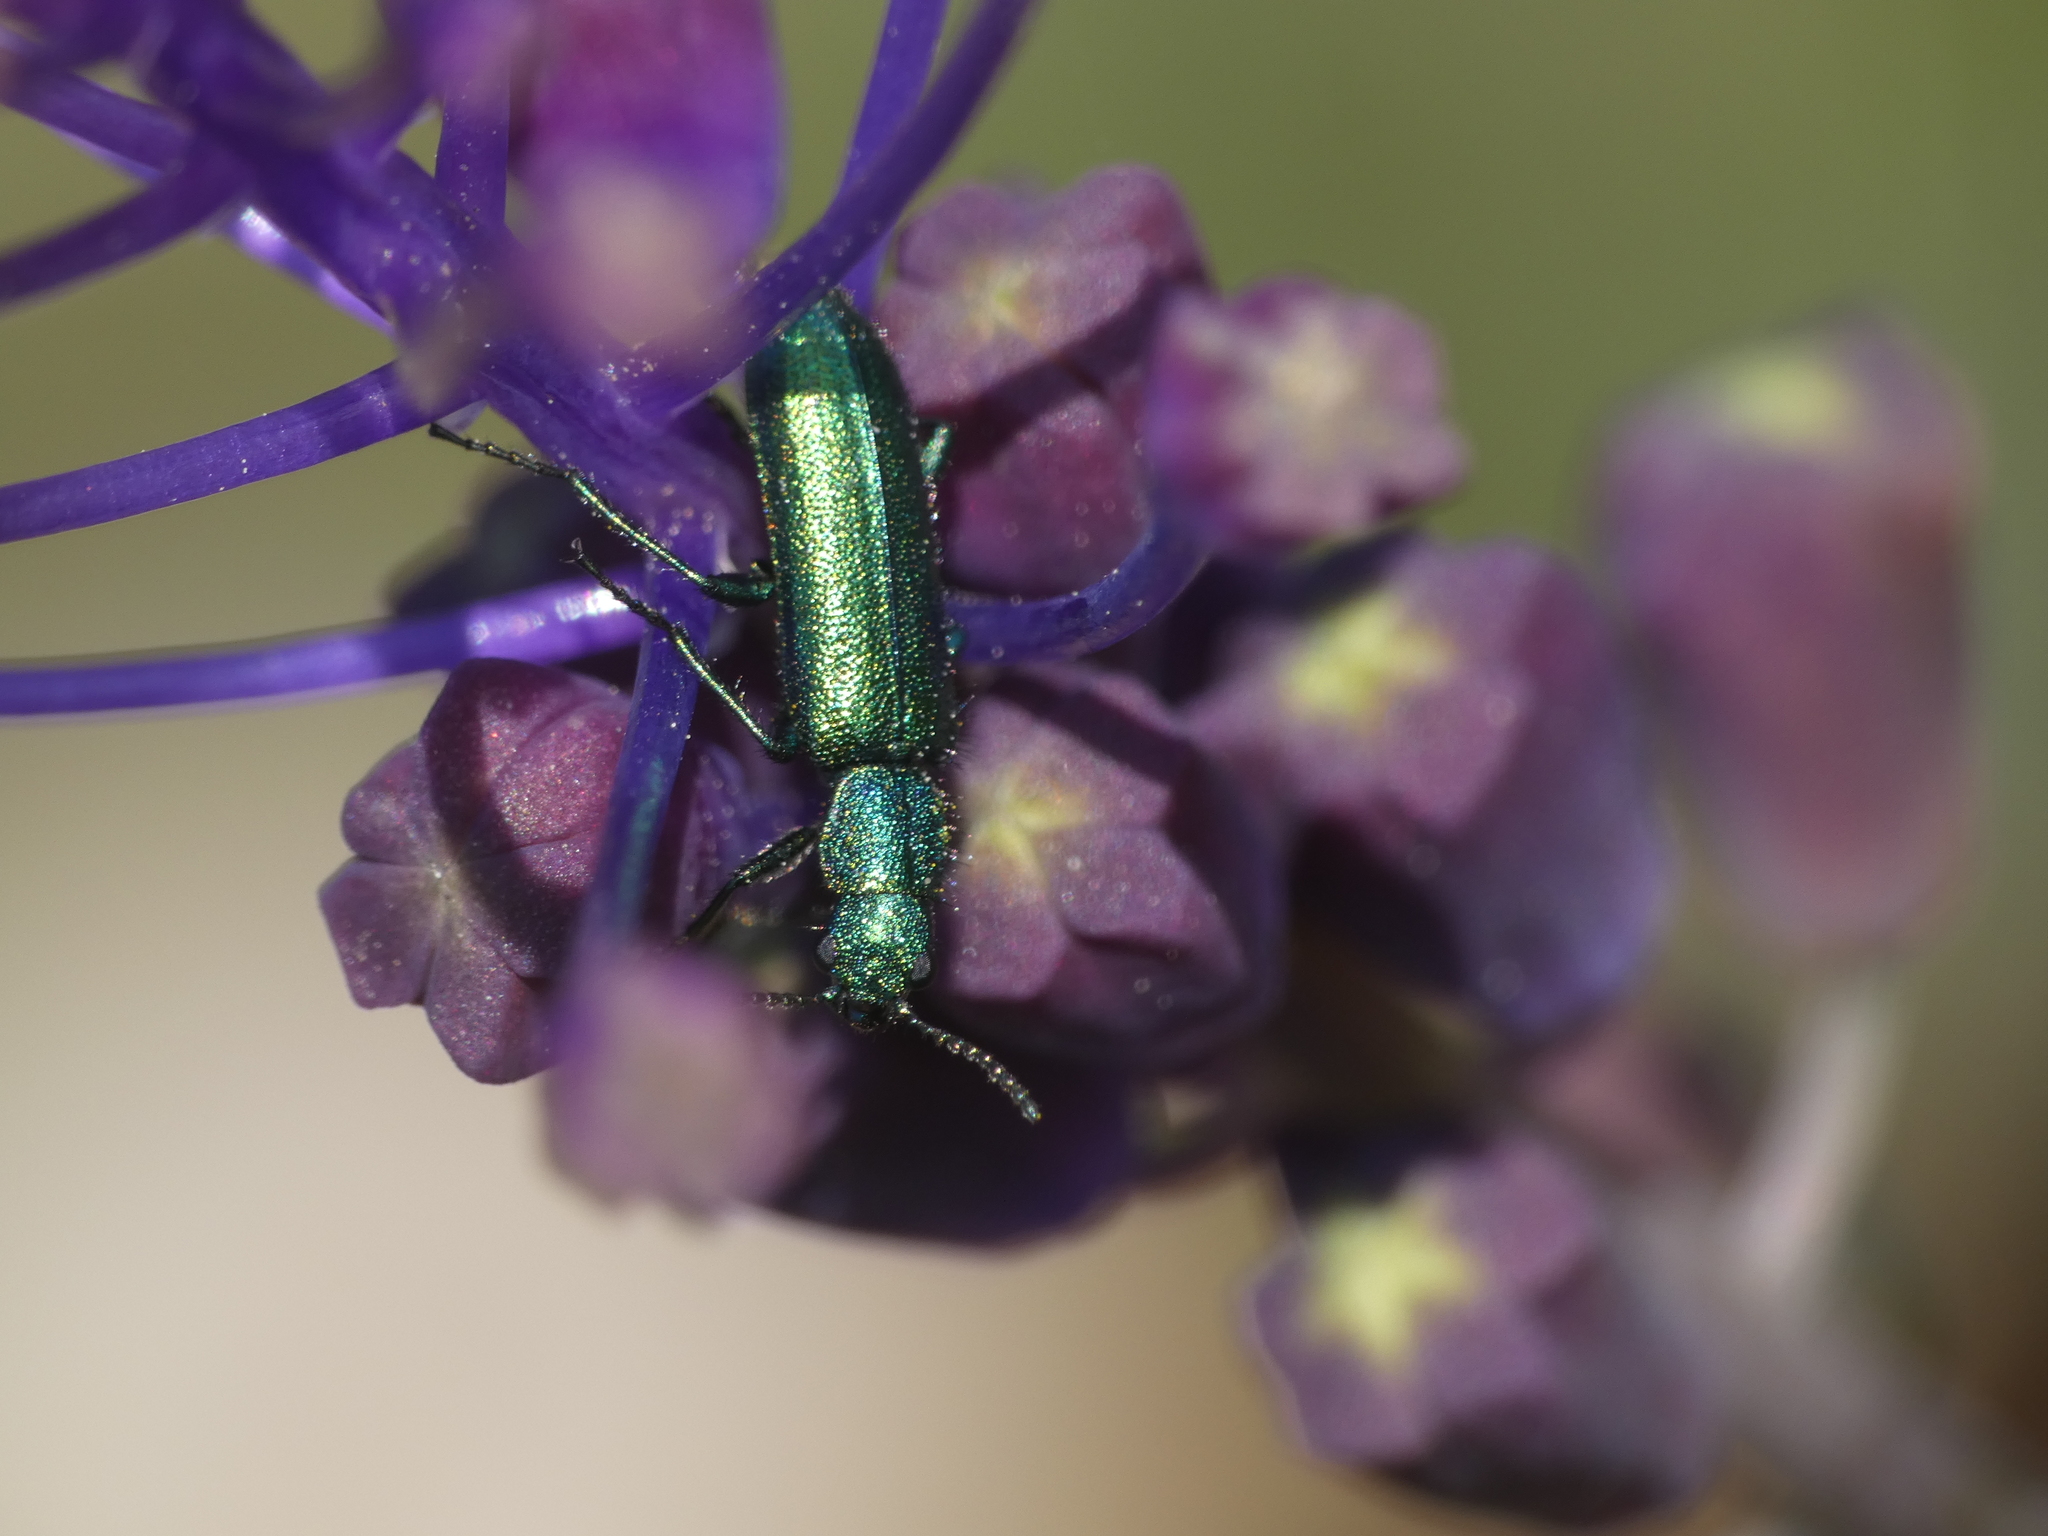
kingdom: Animalia
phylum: Arthropoda
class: Insecta
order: Coleoptera
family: Dasytidae
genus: Psilothrix
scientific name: Psilothrix viridicoerulea
